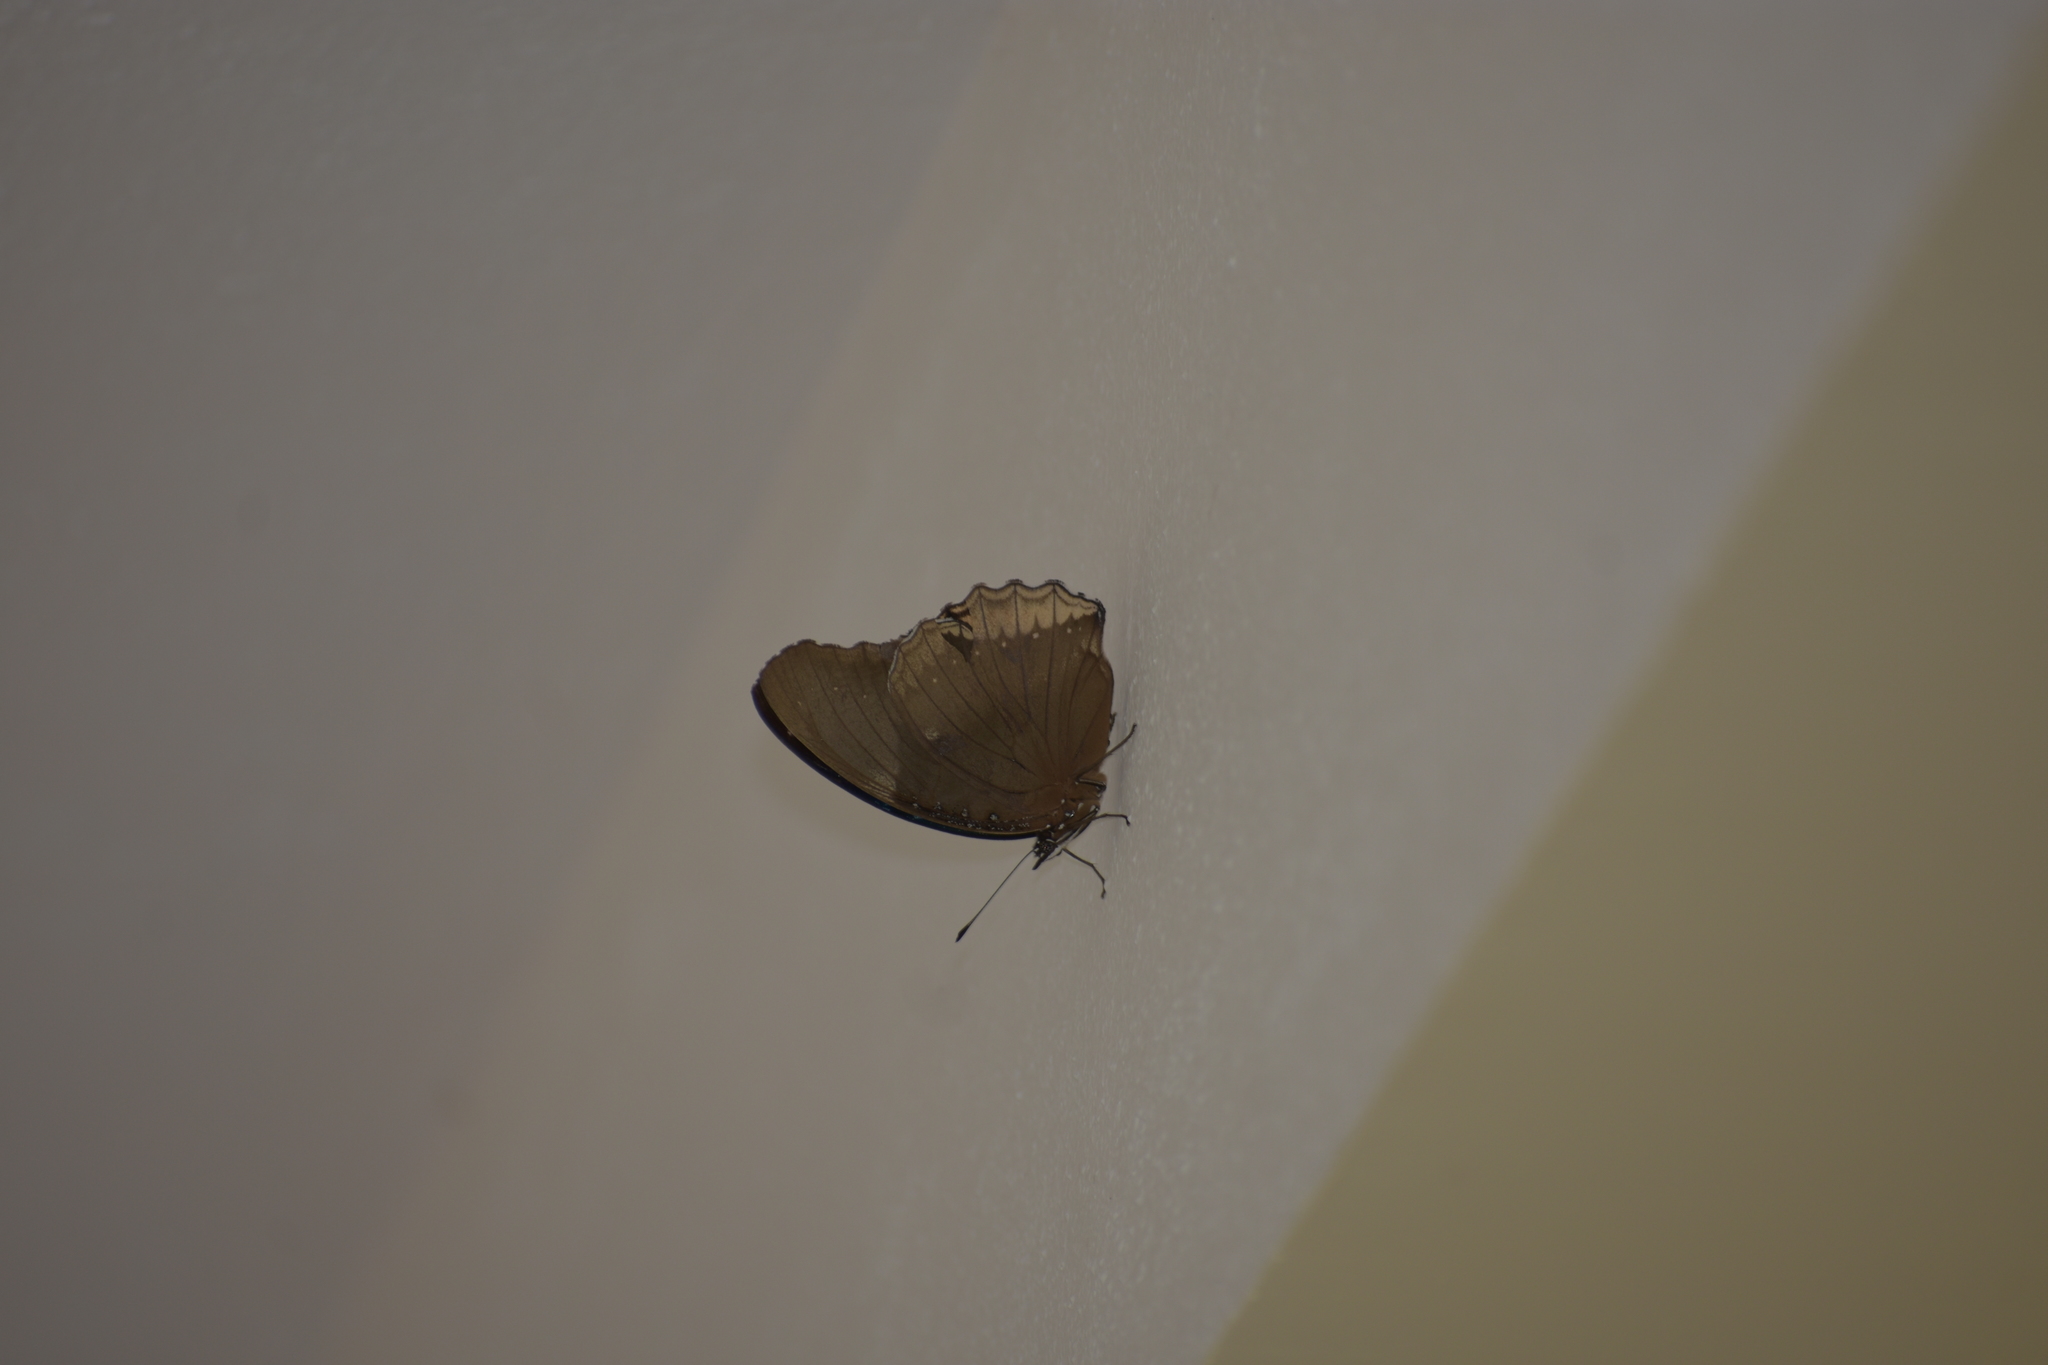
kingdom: Animalia
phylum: Arthropoda
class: Insecta
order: Lepidoptera
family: Nymphalidae
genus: Hypolimnas
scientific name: Hypolimnas bolina
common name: Great eggfly
